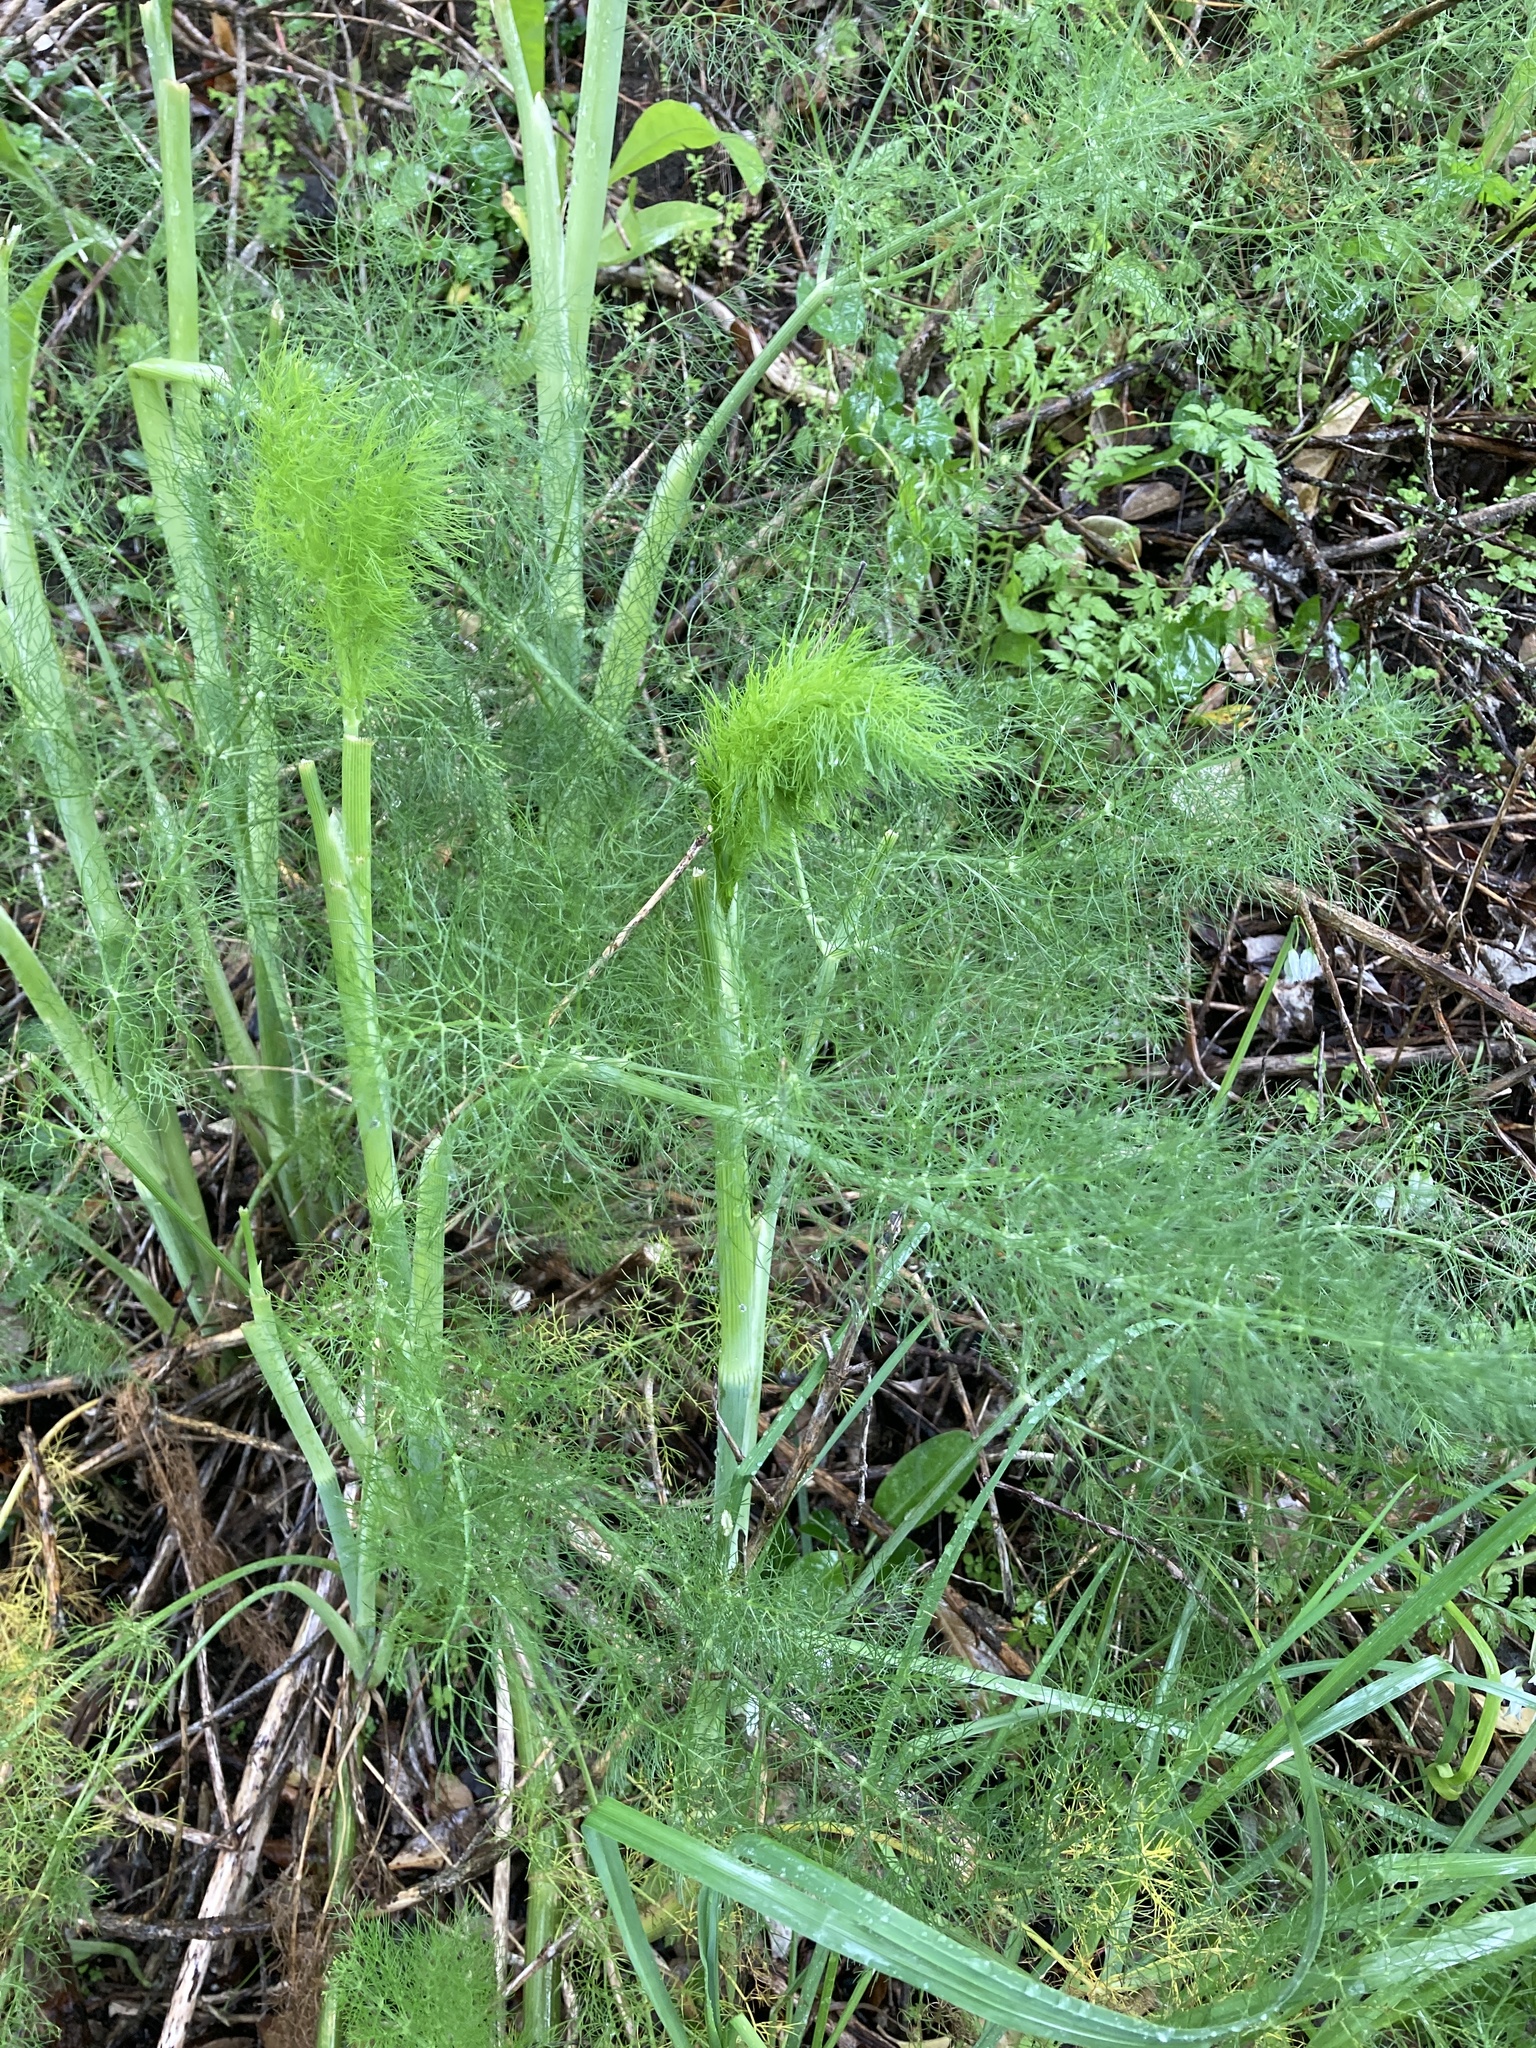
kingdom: Plantae
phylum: Tracheophyta
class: Magnoliopsida
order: Apiales
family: Apiaceae
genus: Foeniculum
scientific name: Foeniculum vulgare
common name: Fennel
